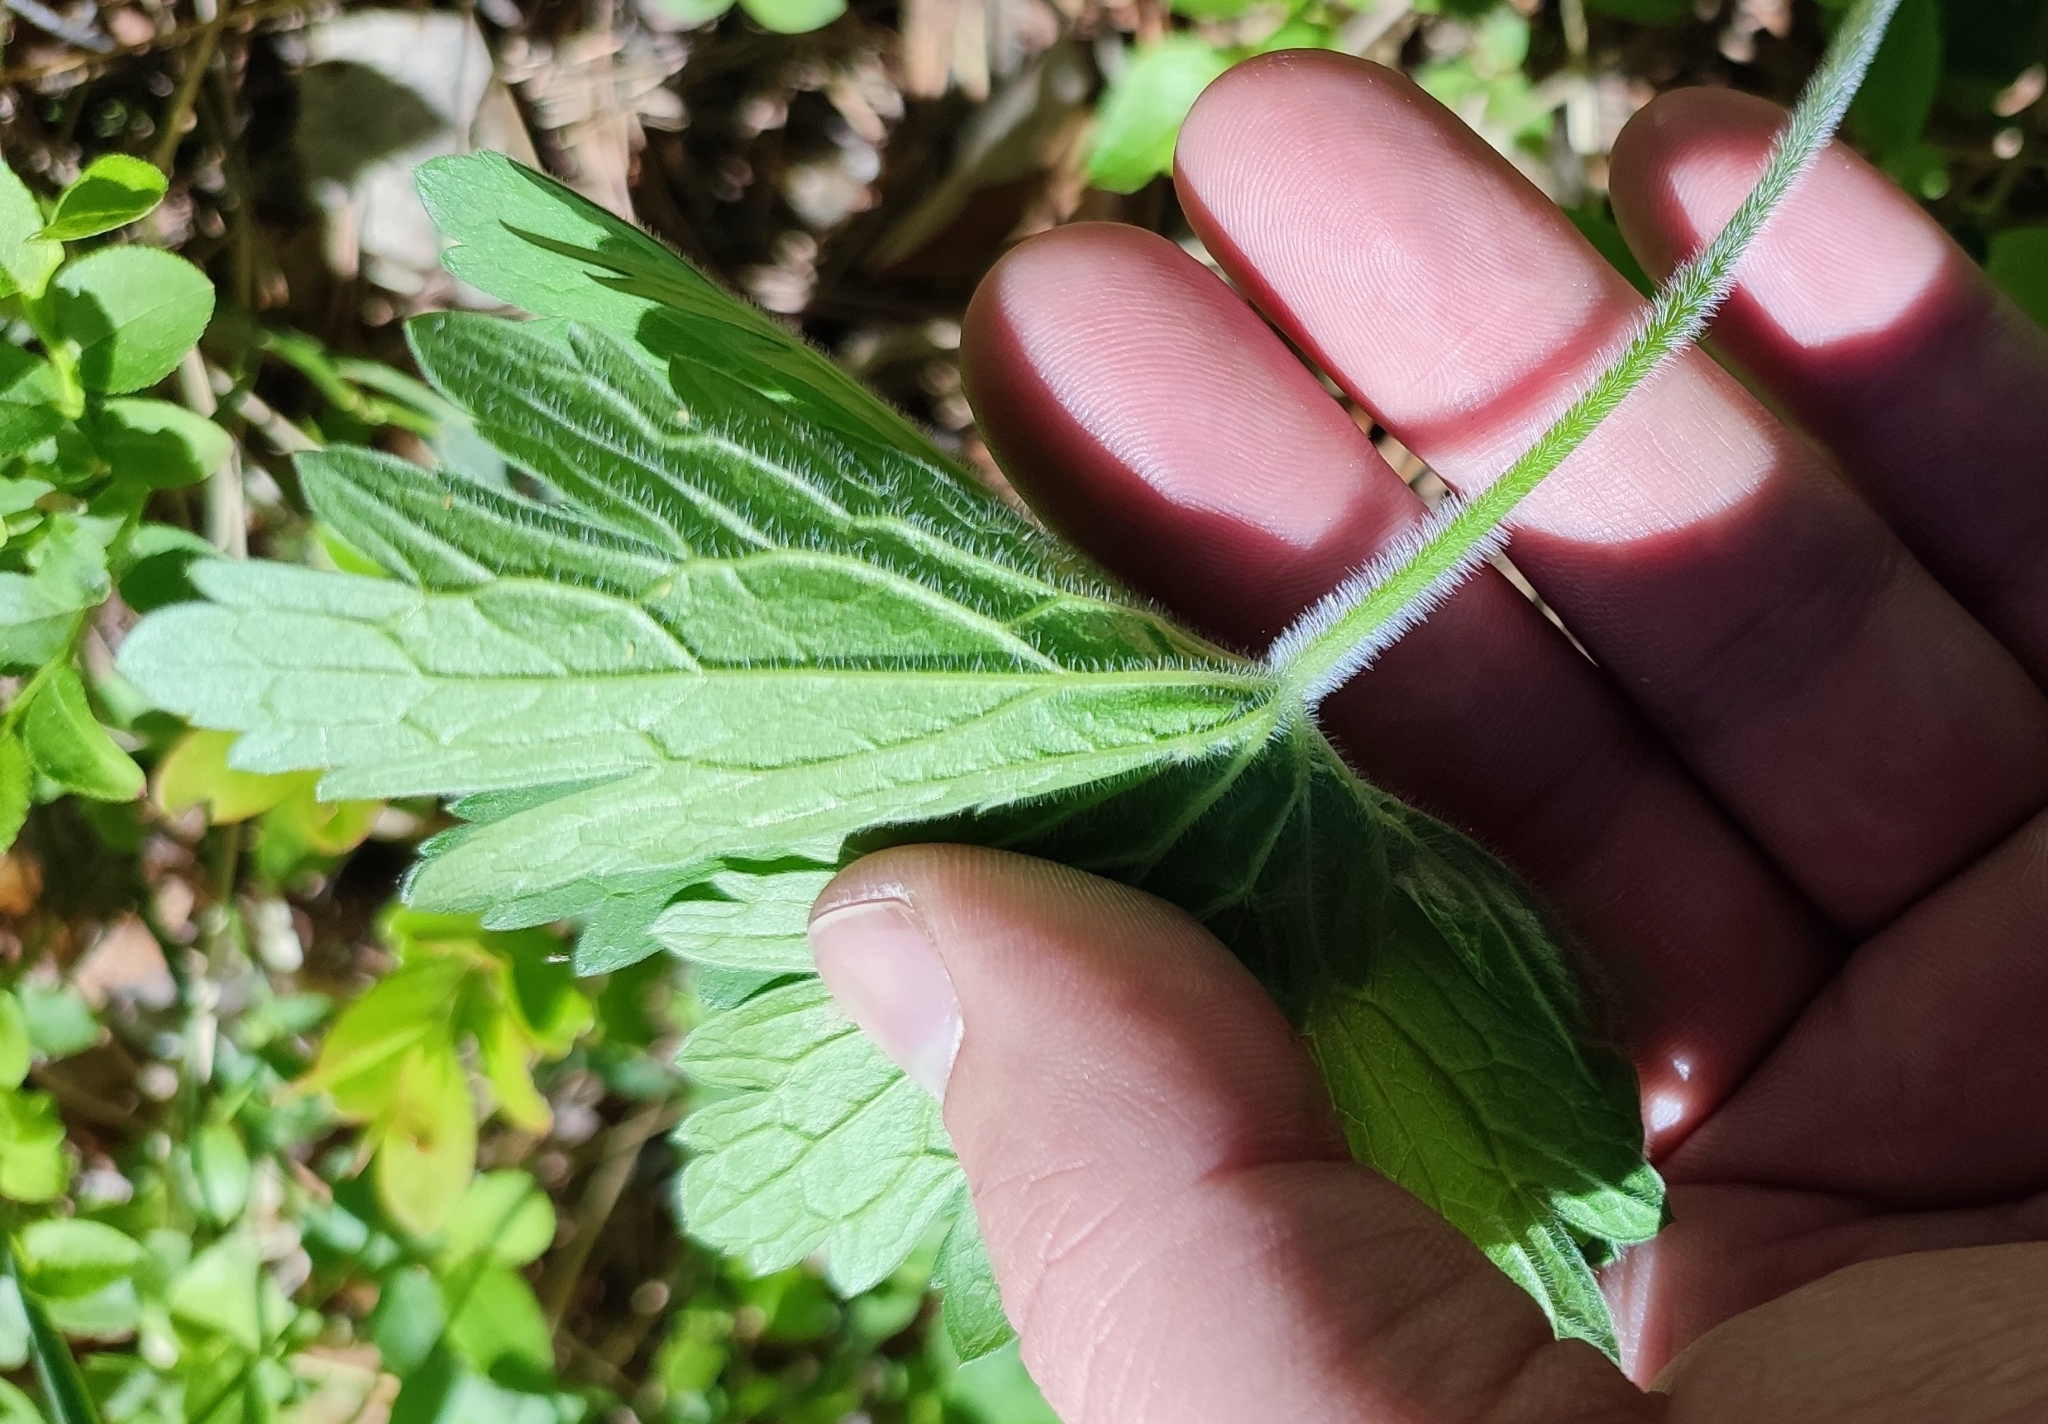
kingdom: Plantae
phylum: Tracheophyta
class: Magnoliopsida
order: Geraniales
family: Geraniaceae
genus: Geranium
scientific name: Geranium sylvaticum
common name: Wood crane's-bill
